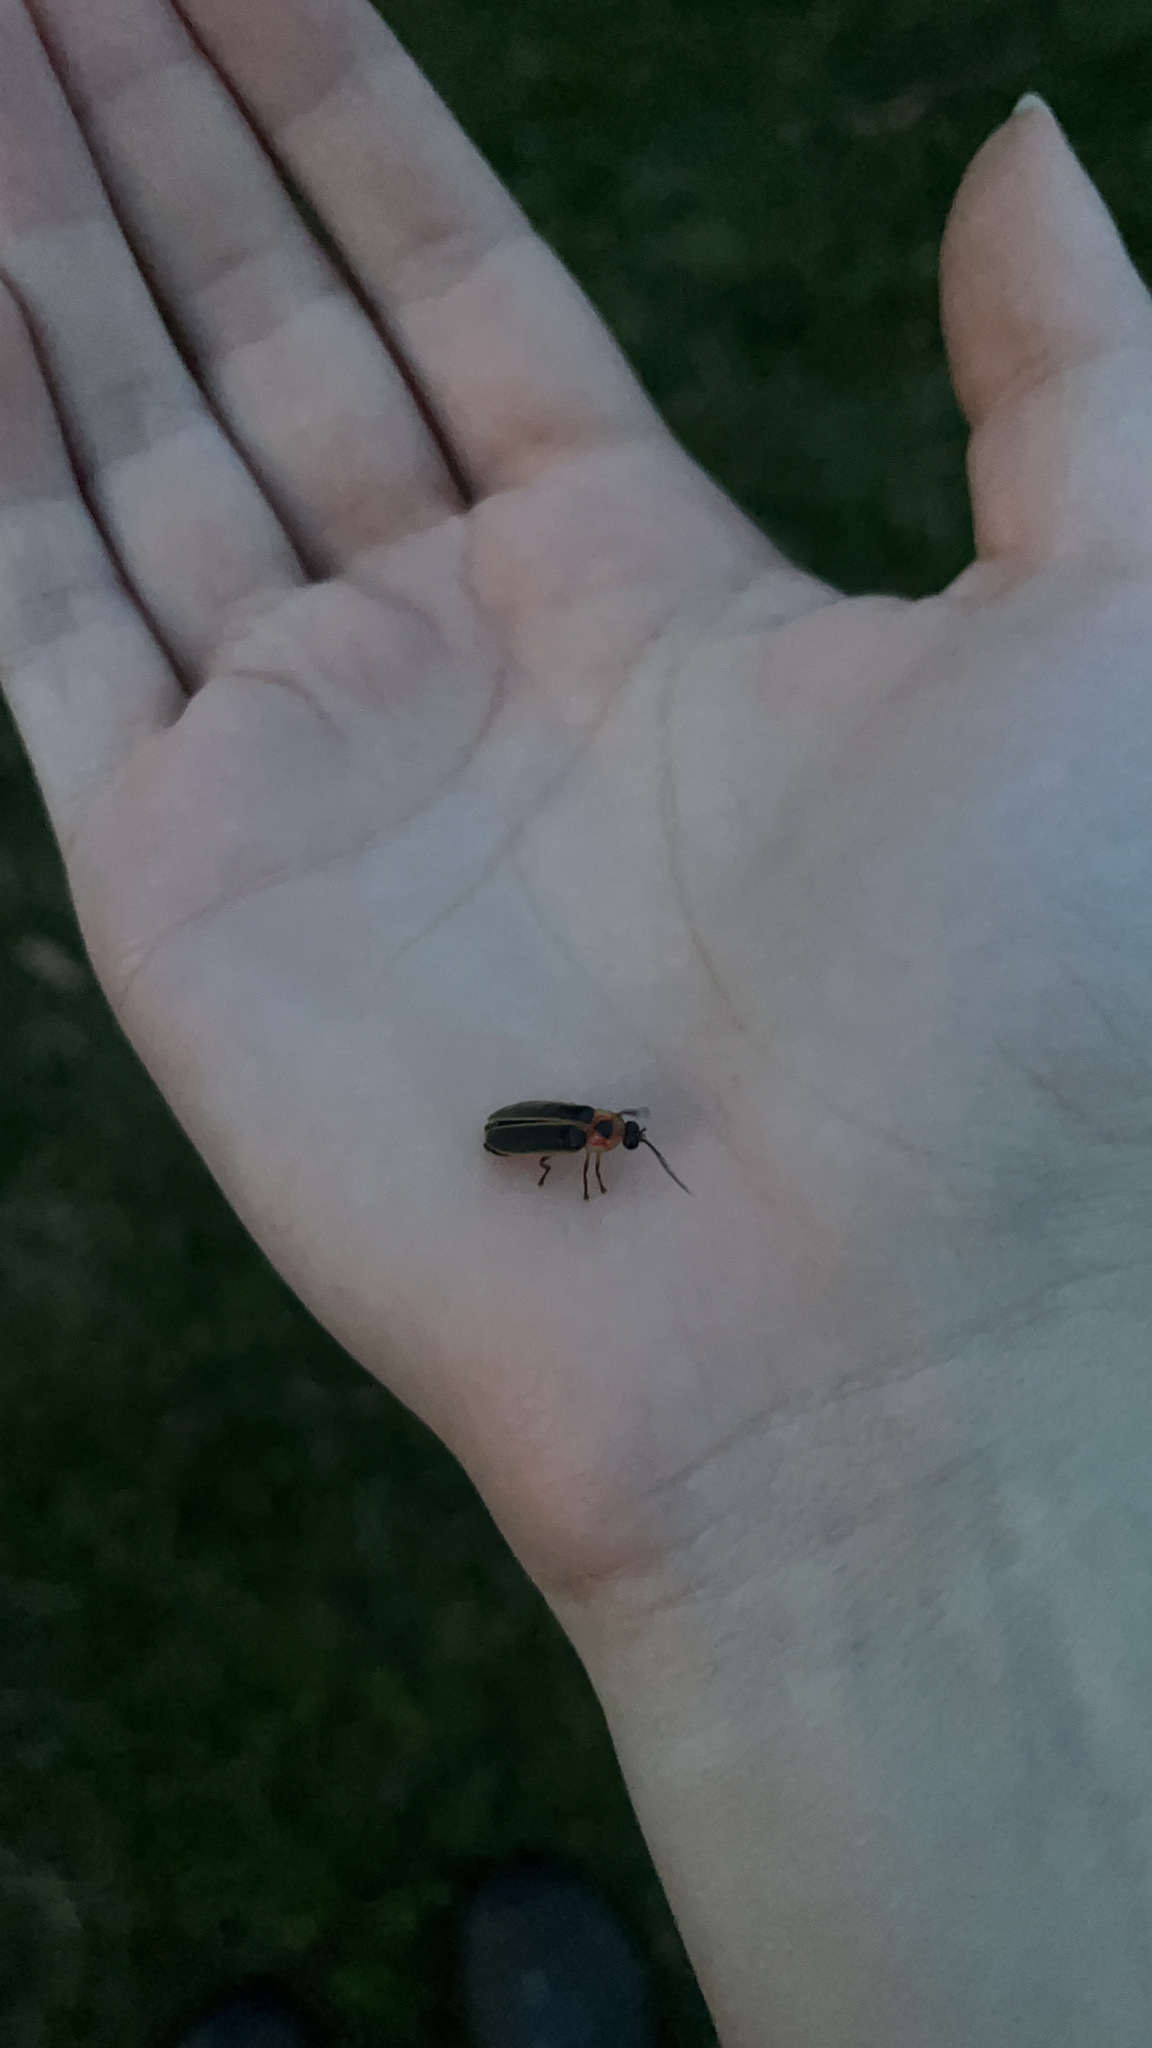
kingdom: Animalia
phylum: Arthropoda
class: Insecta
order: Coleoptera
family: Lampyridae
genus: Photinus
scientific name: Photinus
